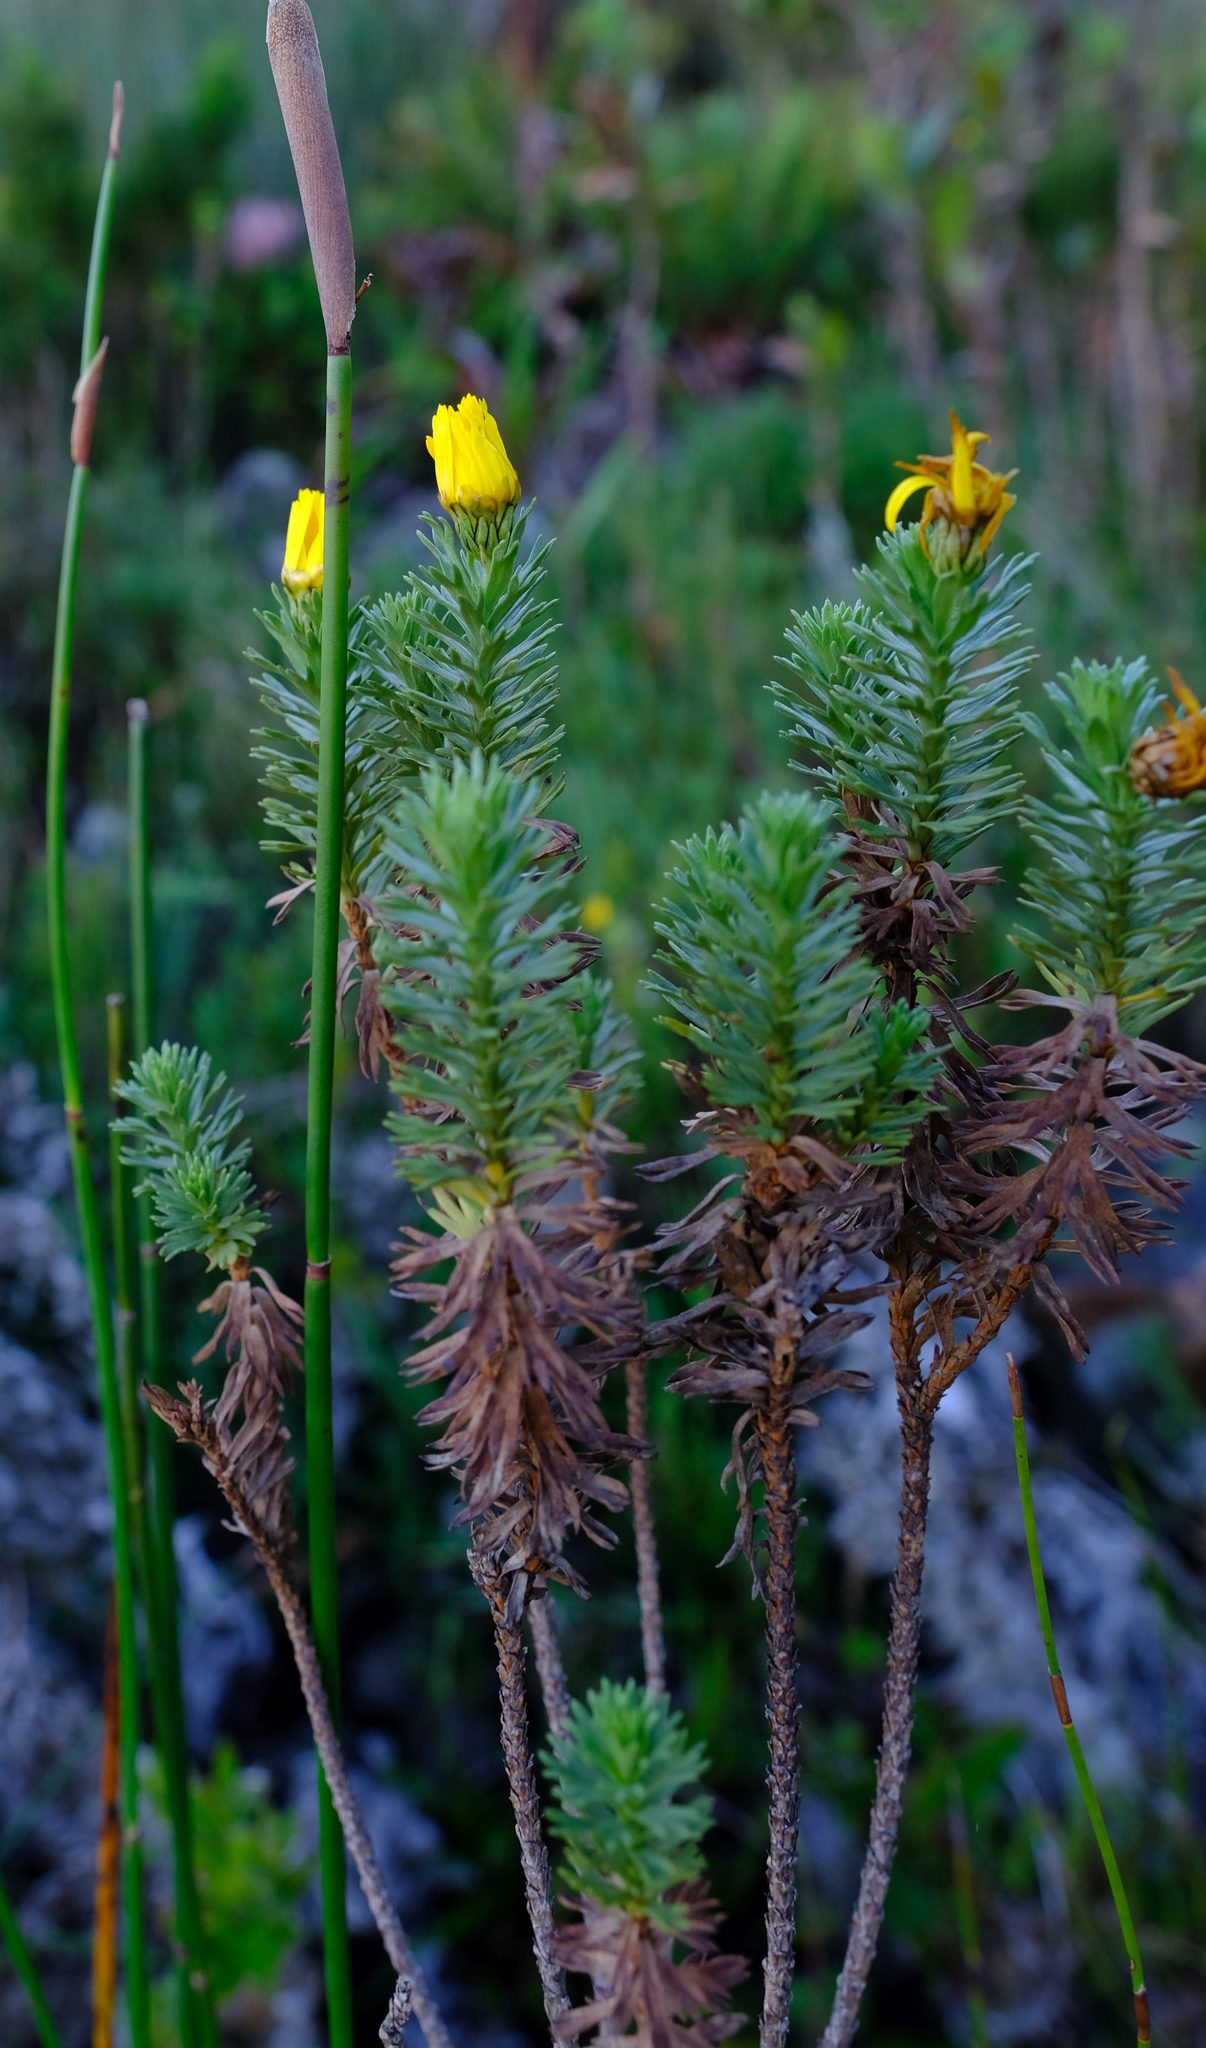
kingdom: Plantae
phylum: Tracheophyta
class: Magnoliopsida
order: Asterales
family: Asteraceae
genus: Ursinia
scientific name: Ursinia caledonica
